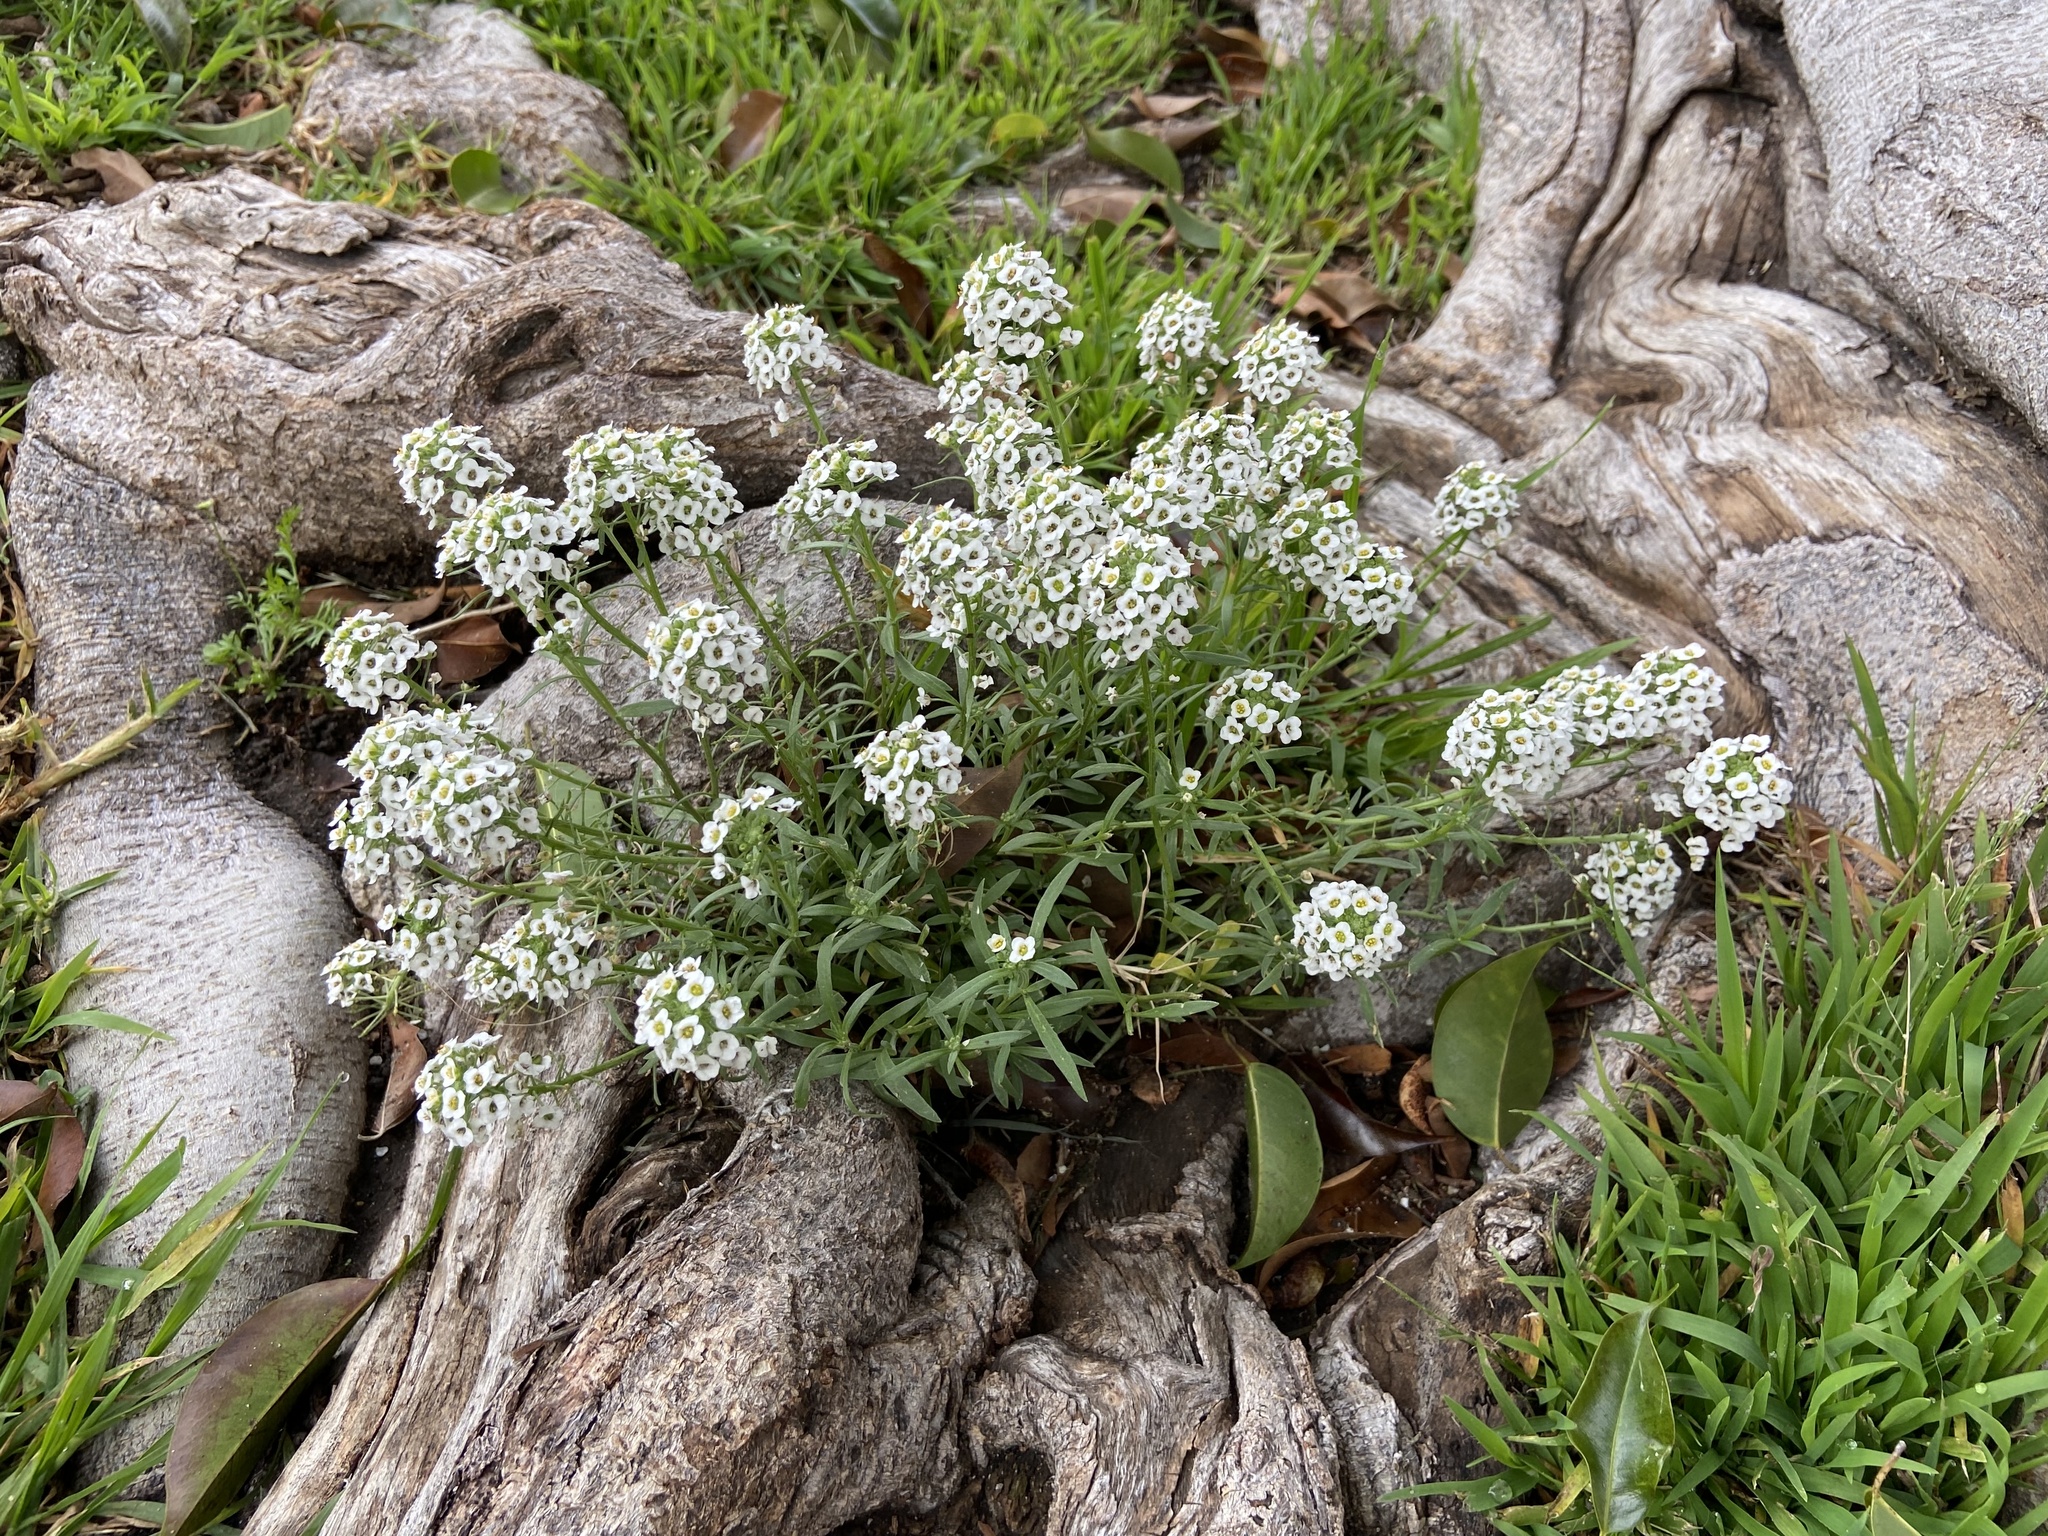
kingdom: Plantae
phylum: Tracheophyta
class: Magnoliopsida
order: Brassicales
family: Brassicaceae
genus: Lobularia
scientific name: Lobularia maritima
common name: Sweet alison
